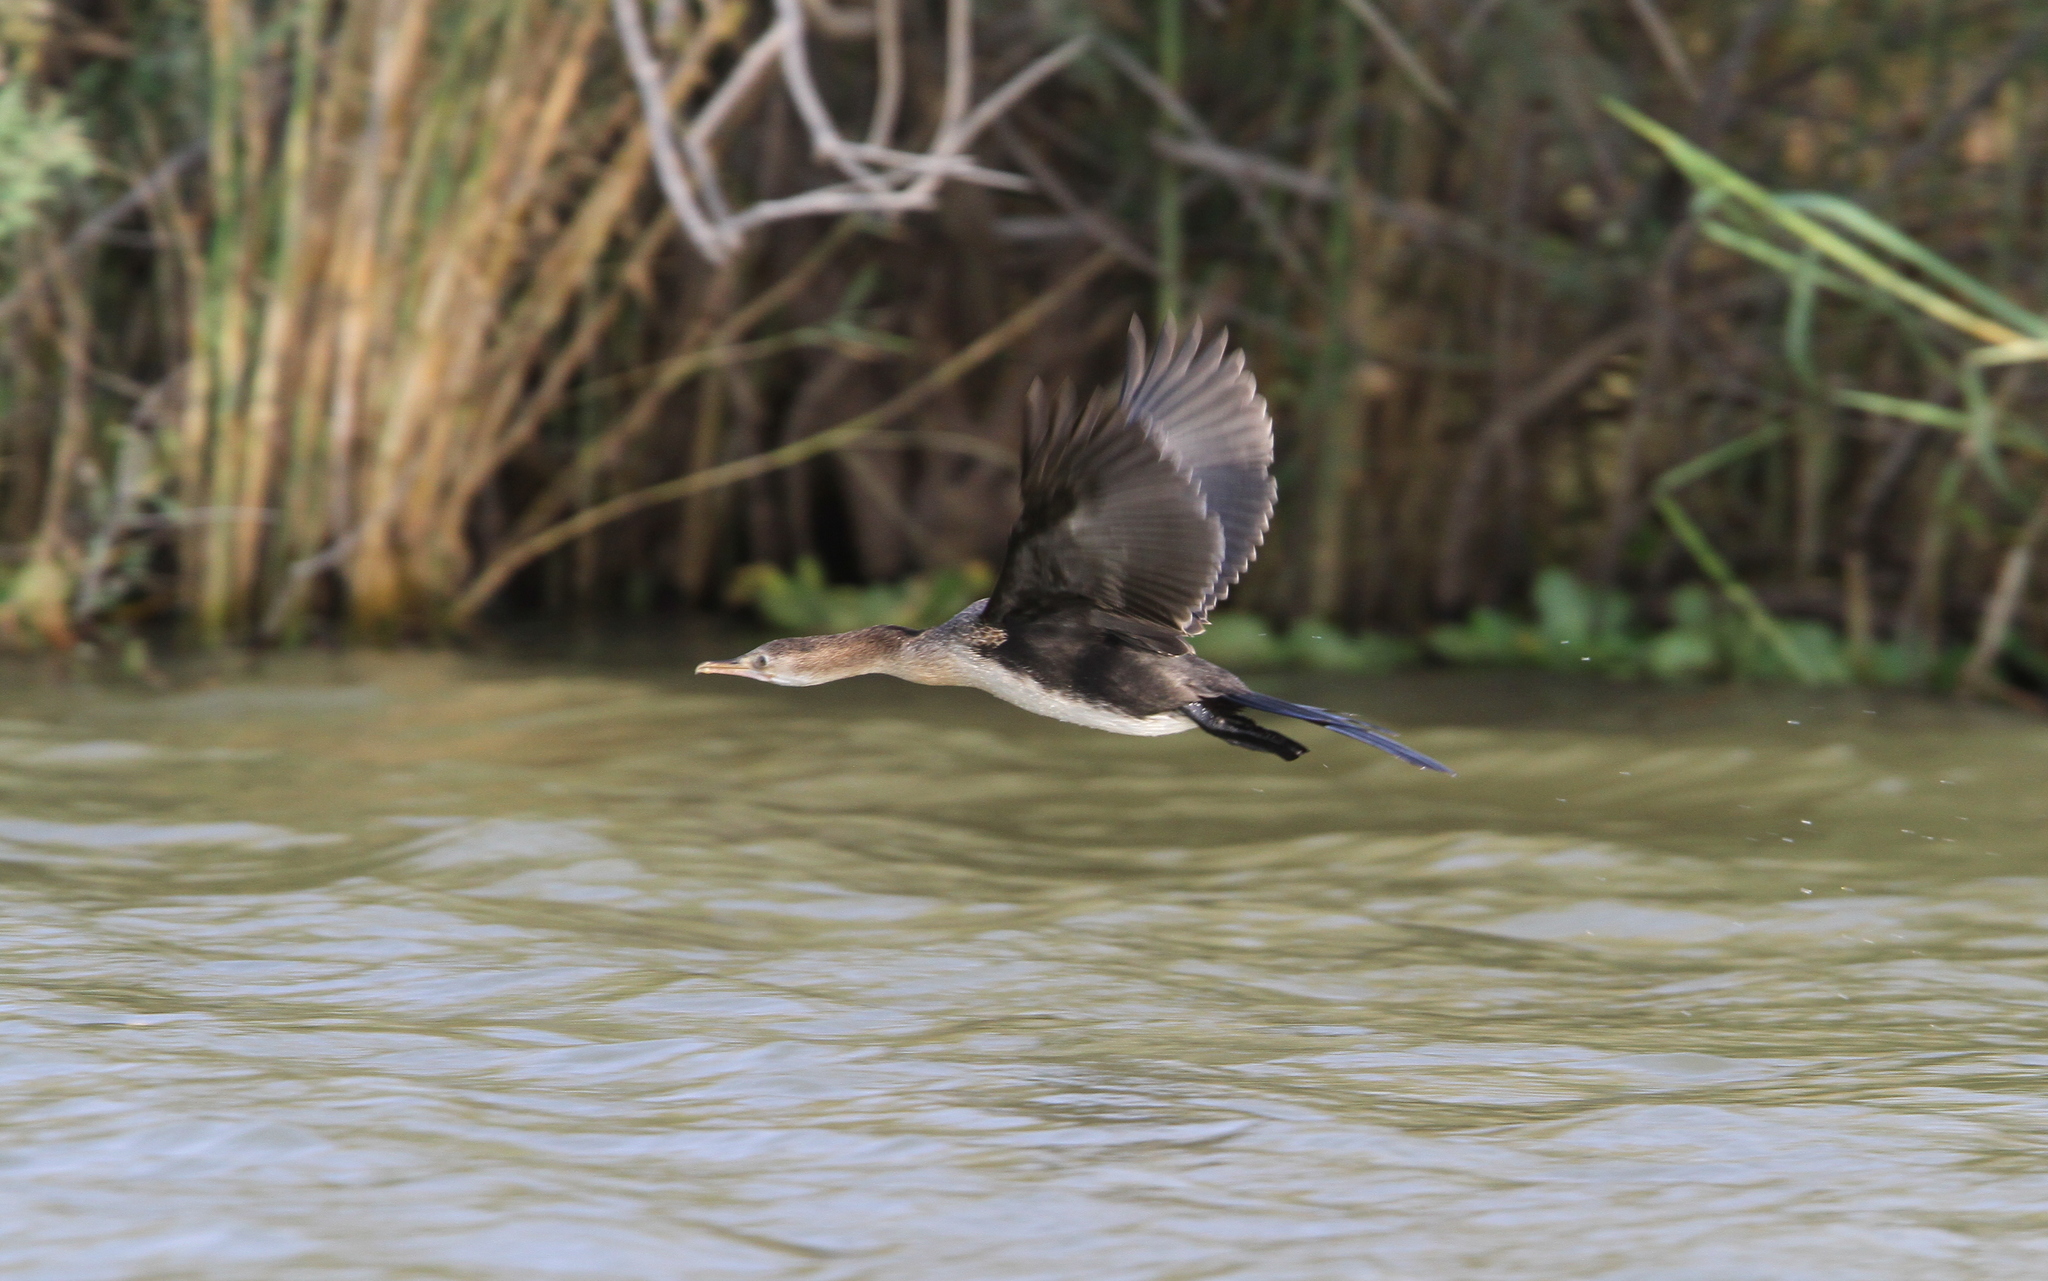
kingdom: Animalia
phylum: Chordata
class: Aves
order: Suliformes
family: Phalacrocoracidae
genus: Microcarbo
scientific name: Microcarbo africanus
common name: Long-tailed cormorant
